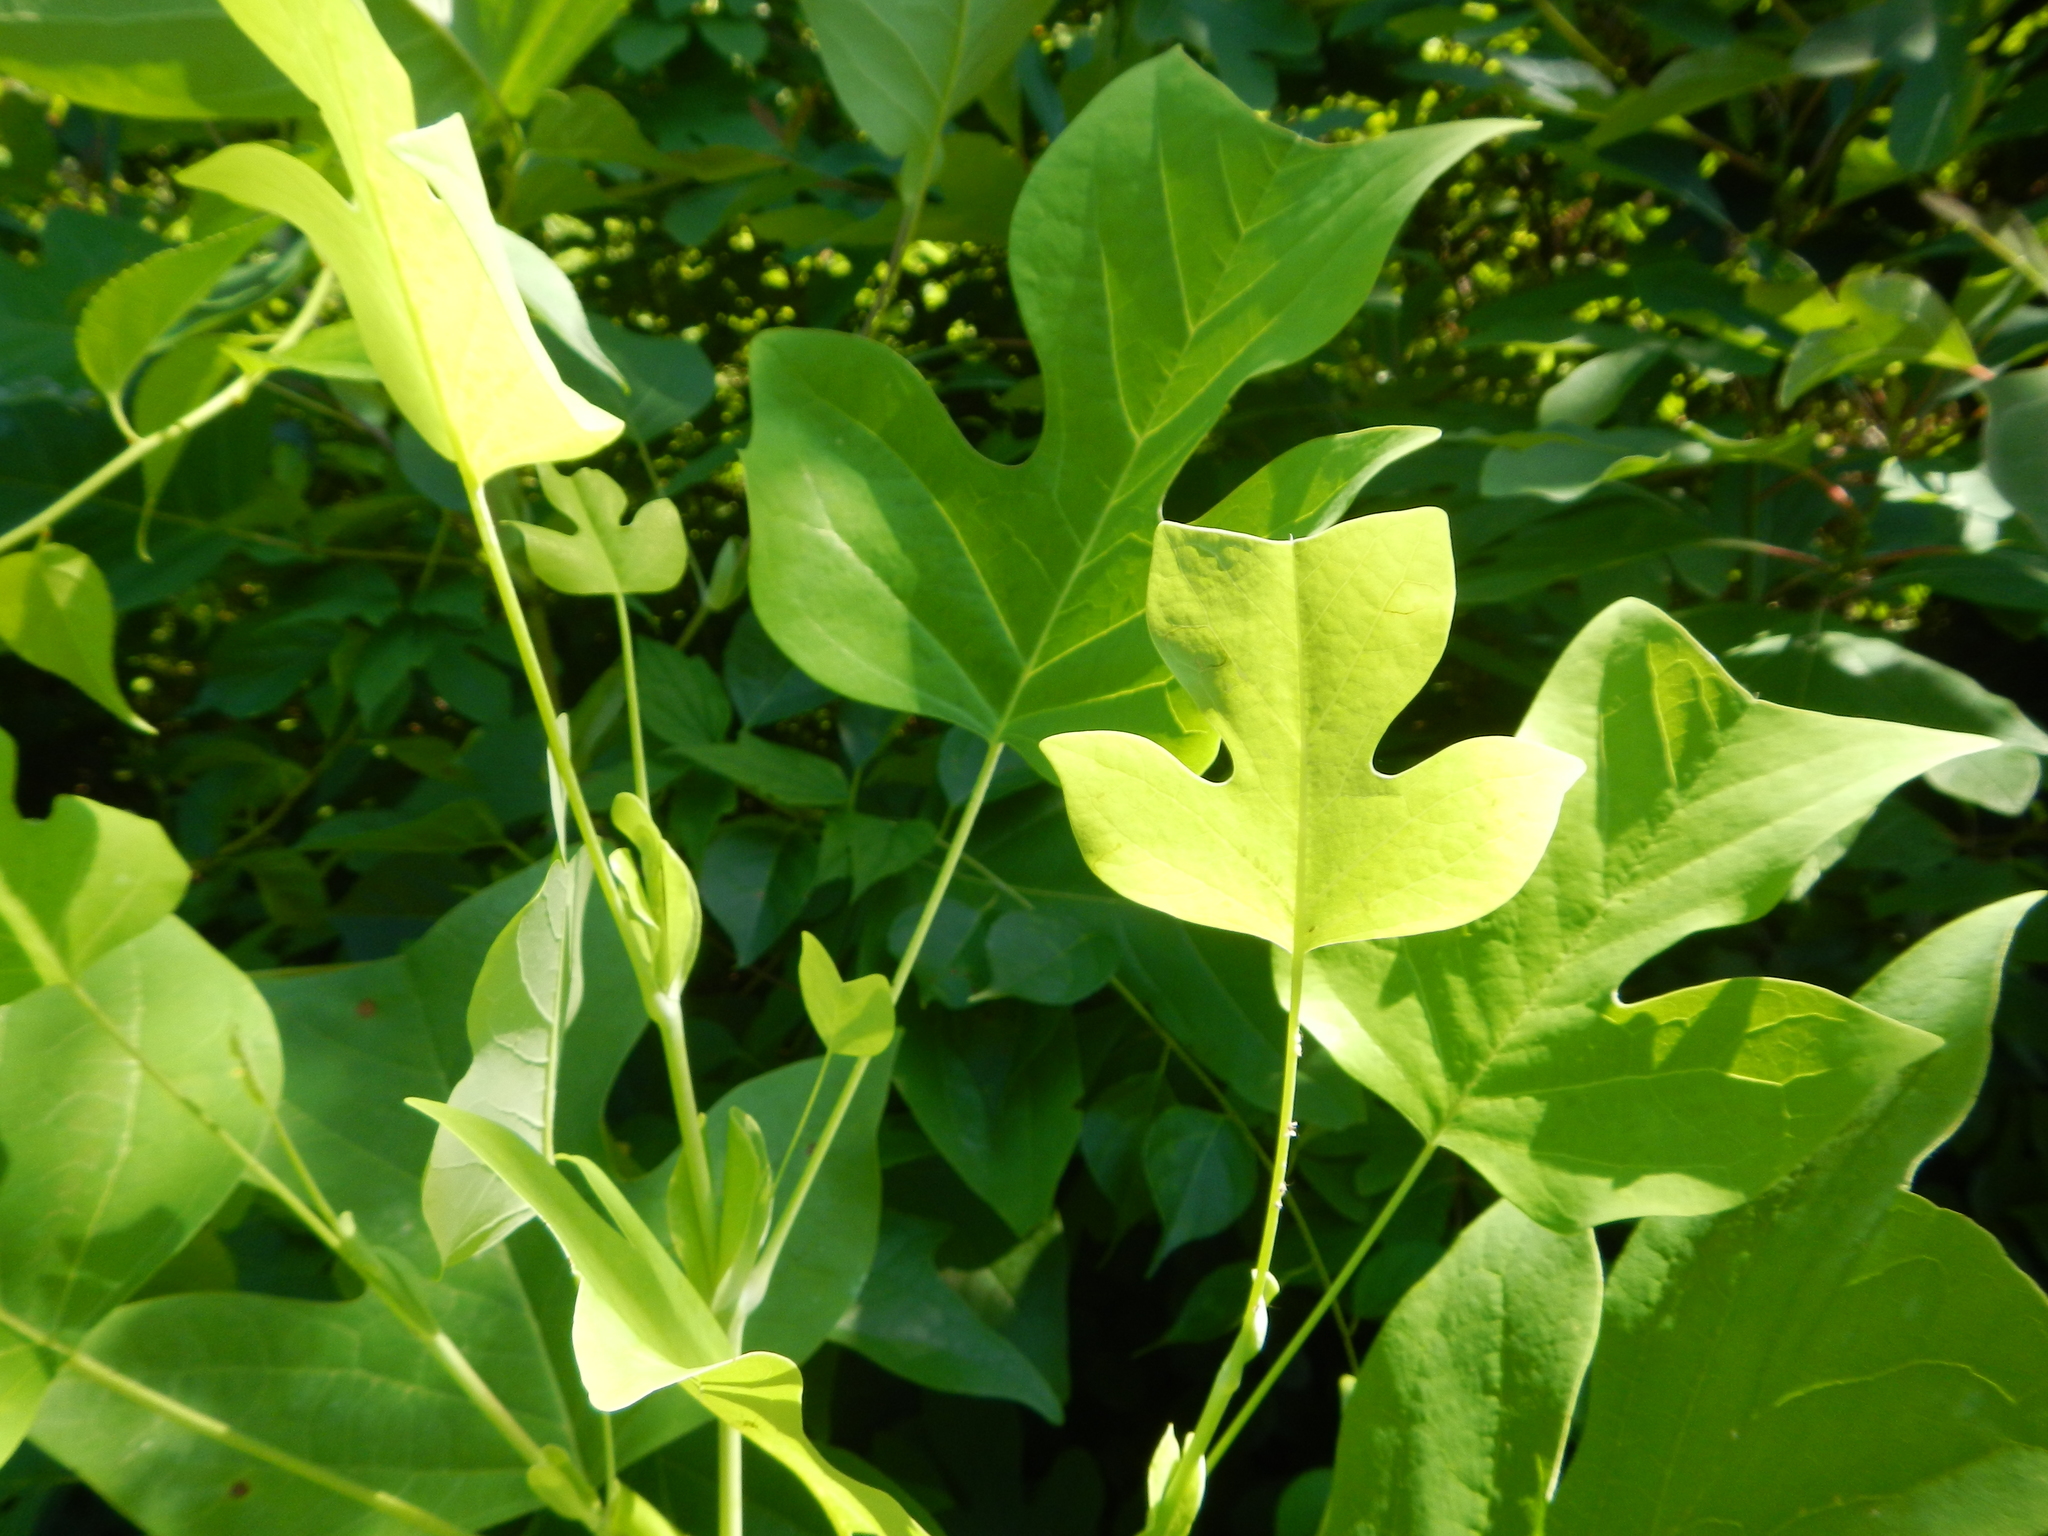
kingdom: Plantae
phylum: Tracheophyta
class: Magnoliopsida
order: Magnoliales
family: Magnoliaceae
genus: Liriodendron
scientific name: Liriodendron tulipifera
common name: Tulip tree
